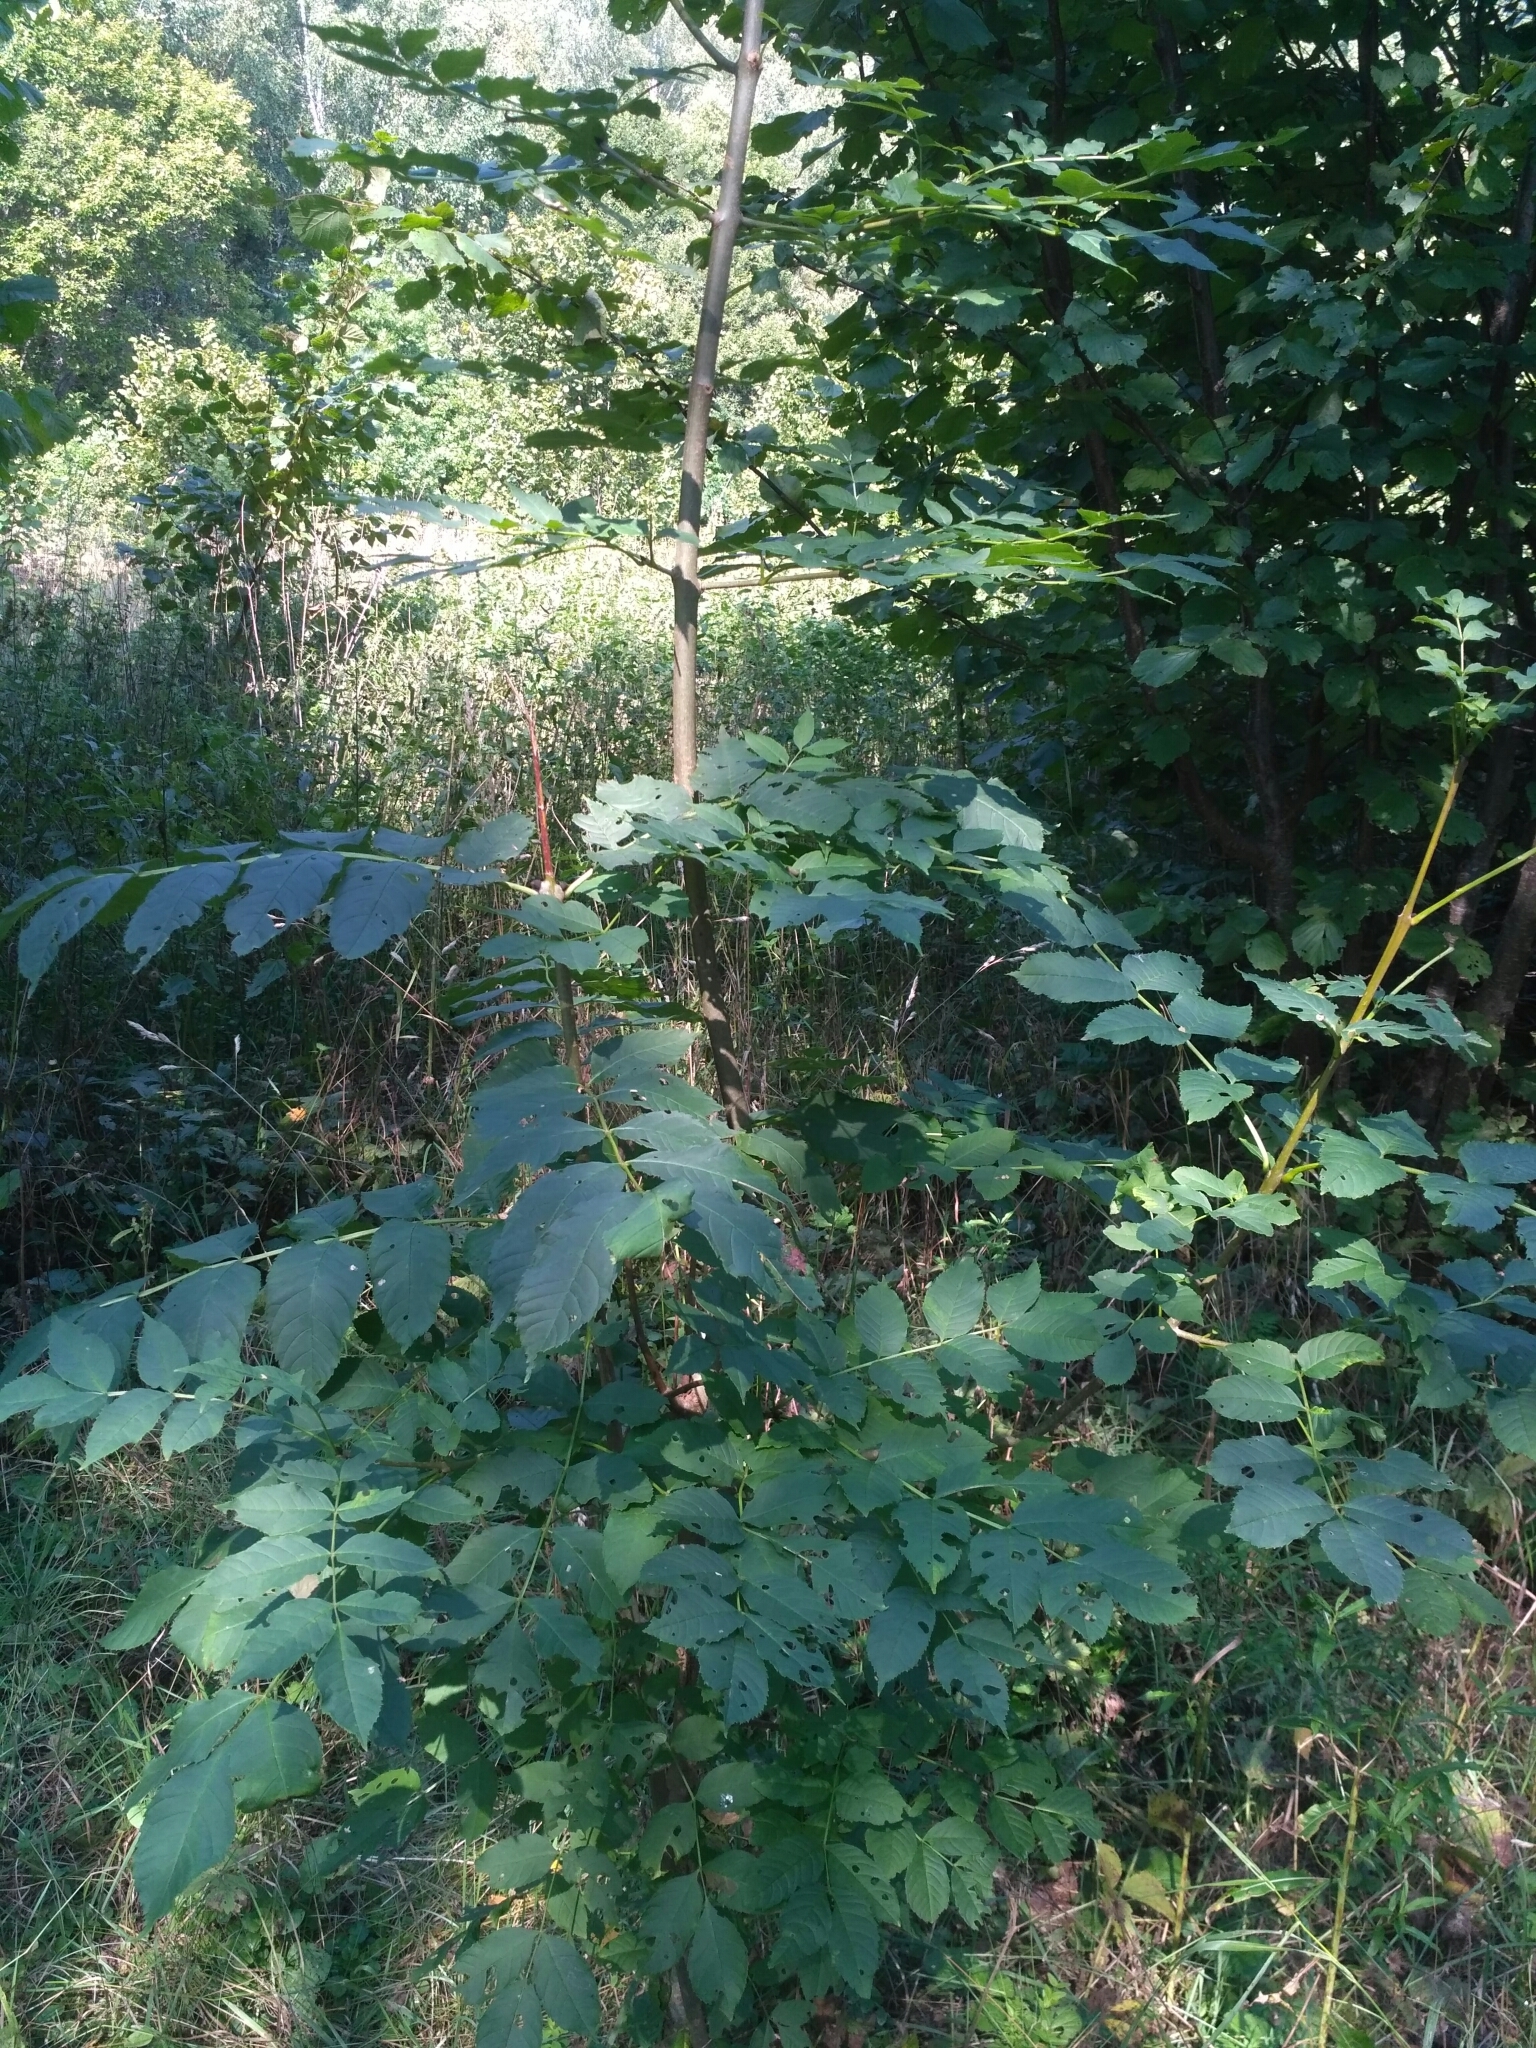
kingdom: Plantae
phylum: Tracheophyta
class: Magnoliopsida
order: Lamiales
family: Oleaceae
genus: Fraxinus
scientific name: Fraxinus excelsior
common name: European ash
